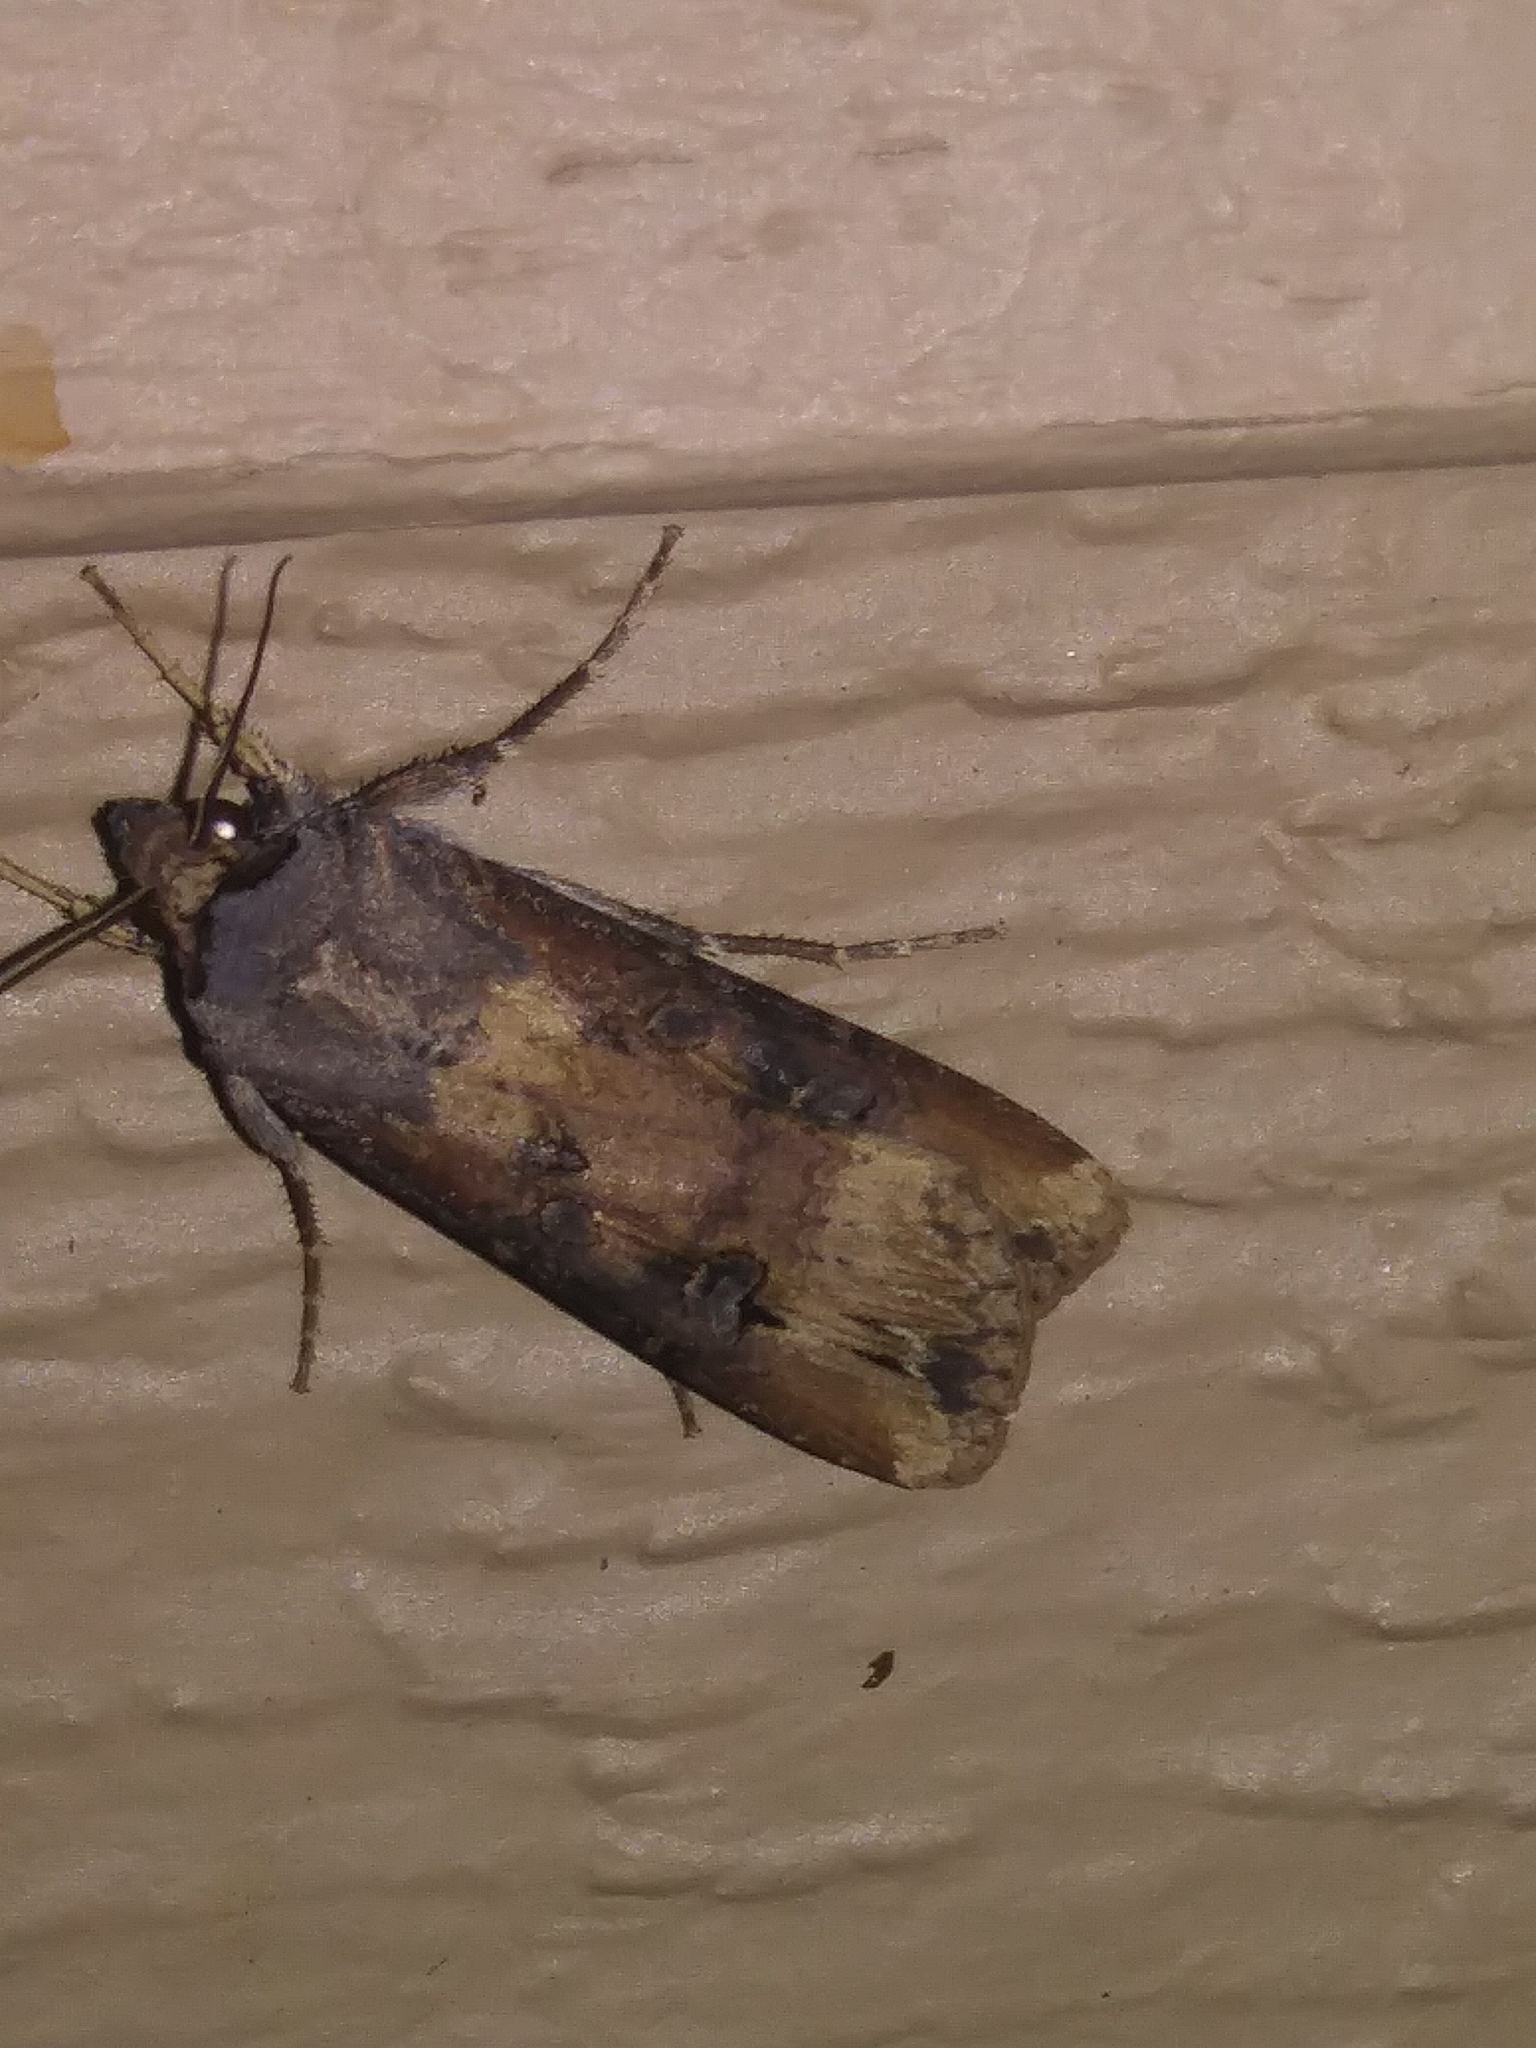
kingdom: Animalia
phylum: Arthropoda
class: Insecta
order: Lepidoptera
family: Noctuidae
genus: Agrotis
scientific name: Agrotis ipsilon
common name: Dark sword-grass
